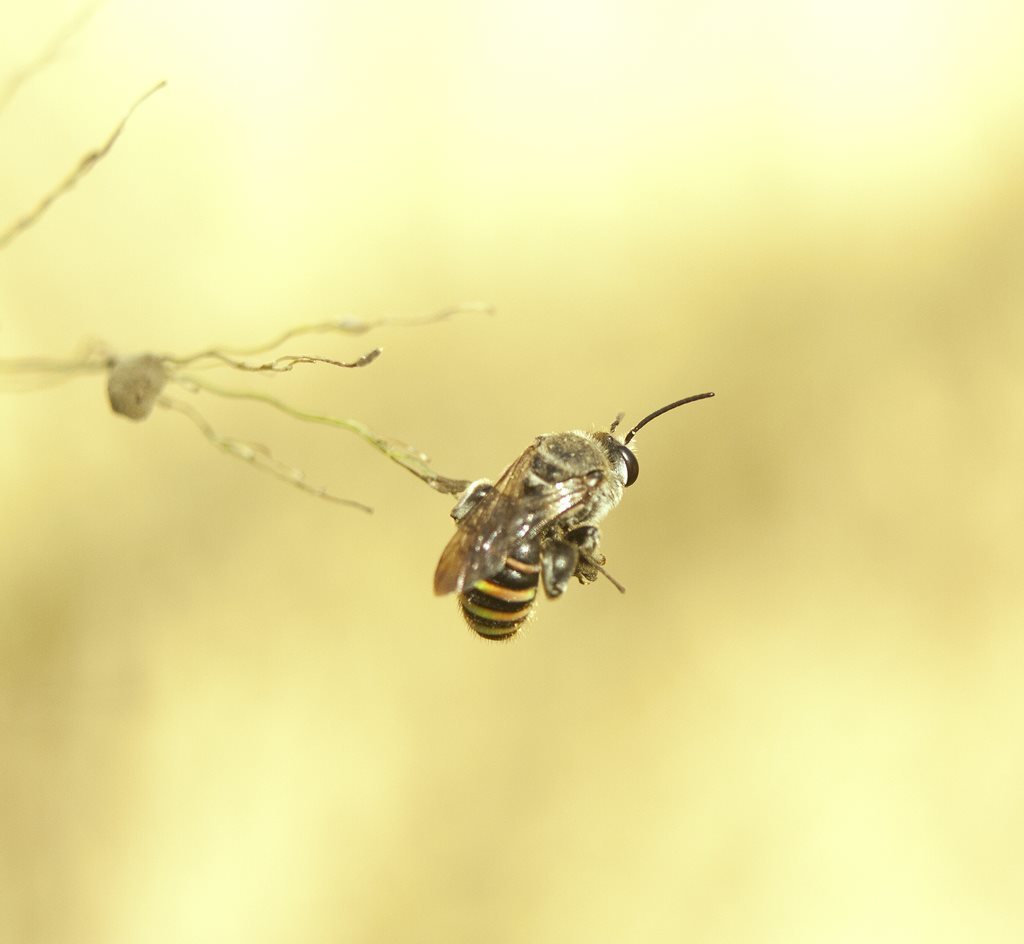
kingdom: Animalia
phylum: Arthropoda
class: Insecta
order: Hymenoptera
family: Halictidae
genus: Lipotriches
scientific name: Lipotriches australica
